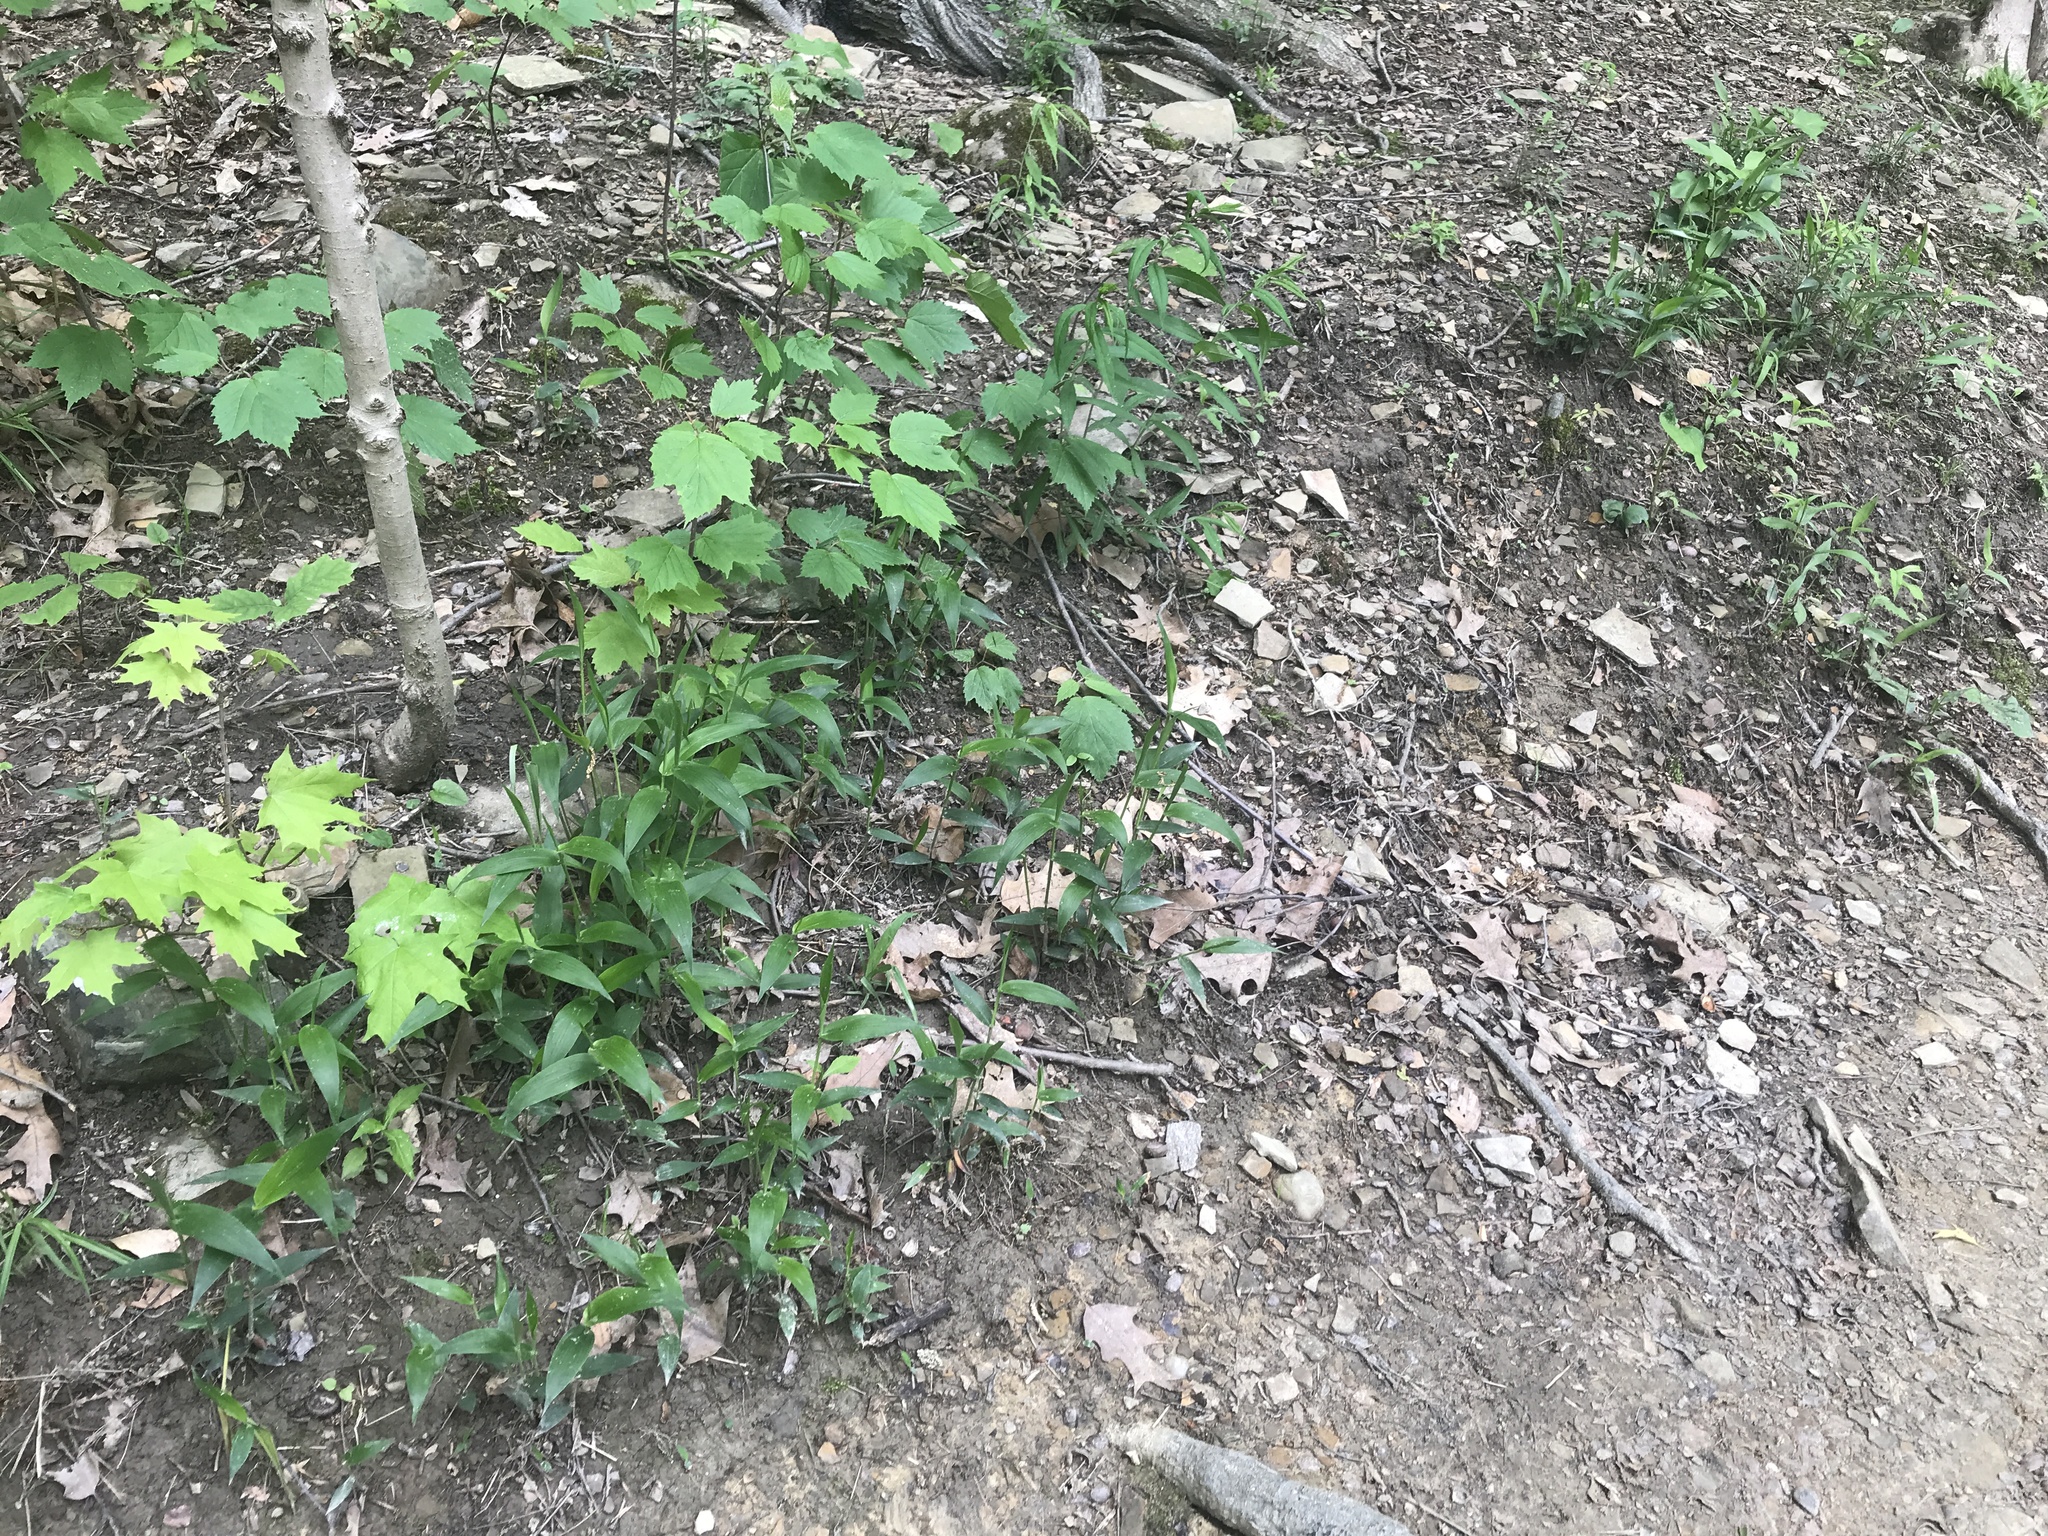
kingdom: Plantae
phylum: Tracheophyta
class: Liliopsida
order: Poales
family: Poaceae
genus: Dichanthelium
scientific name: Dichanthelium boscii
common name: Bosc's panic grass
